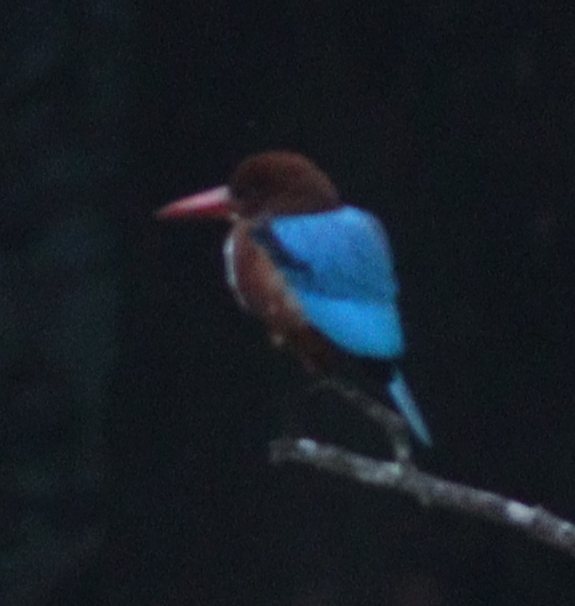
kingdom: Animalia
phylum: Chordata
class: Aves
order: Coraciiformes
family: Alcedinidae
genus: Halcyon
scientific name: Halcyon smyrnensis
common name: White-throated kingfisher
